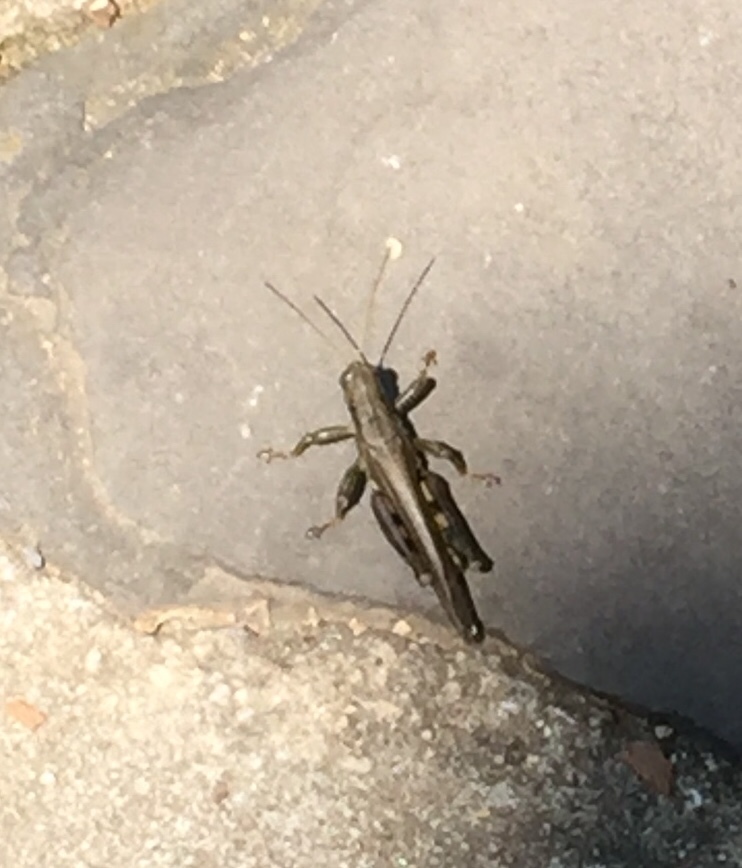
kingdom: Animalia
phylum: Arthropoda
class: Insecta
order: Orthoptera
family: Acrididae
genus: Melanoplus
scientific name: Melanoplus differentialis
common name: Differential grasshopper
